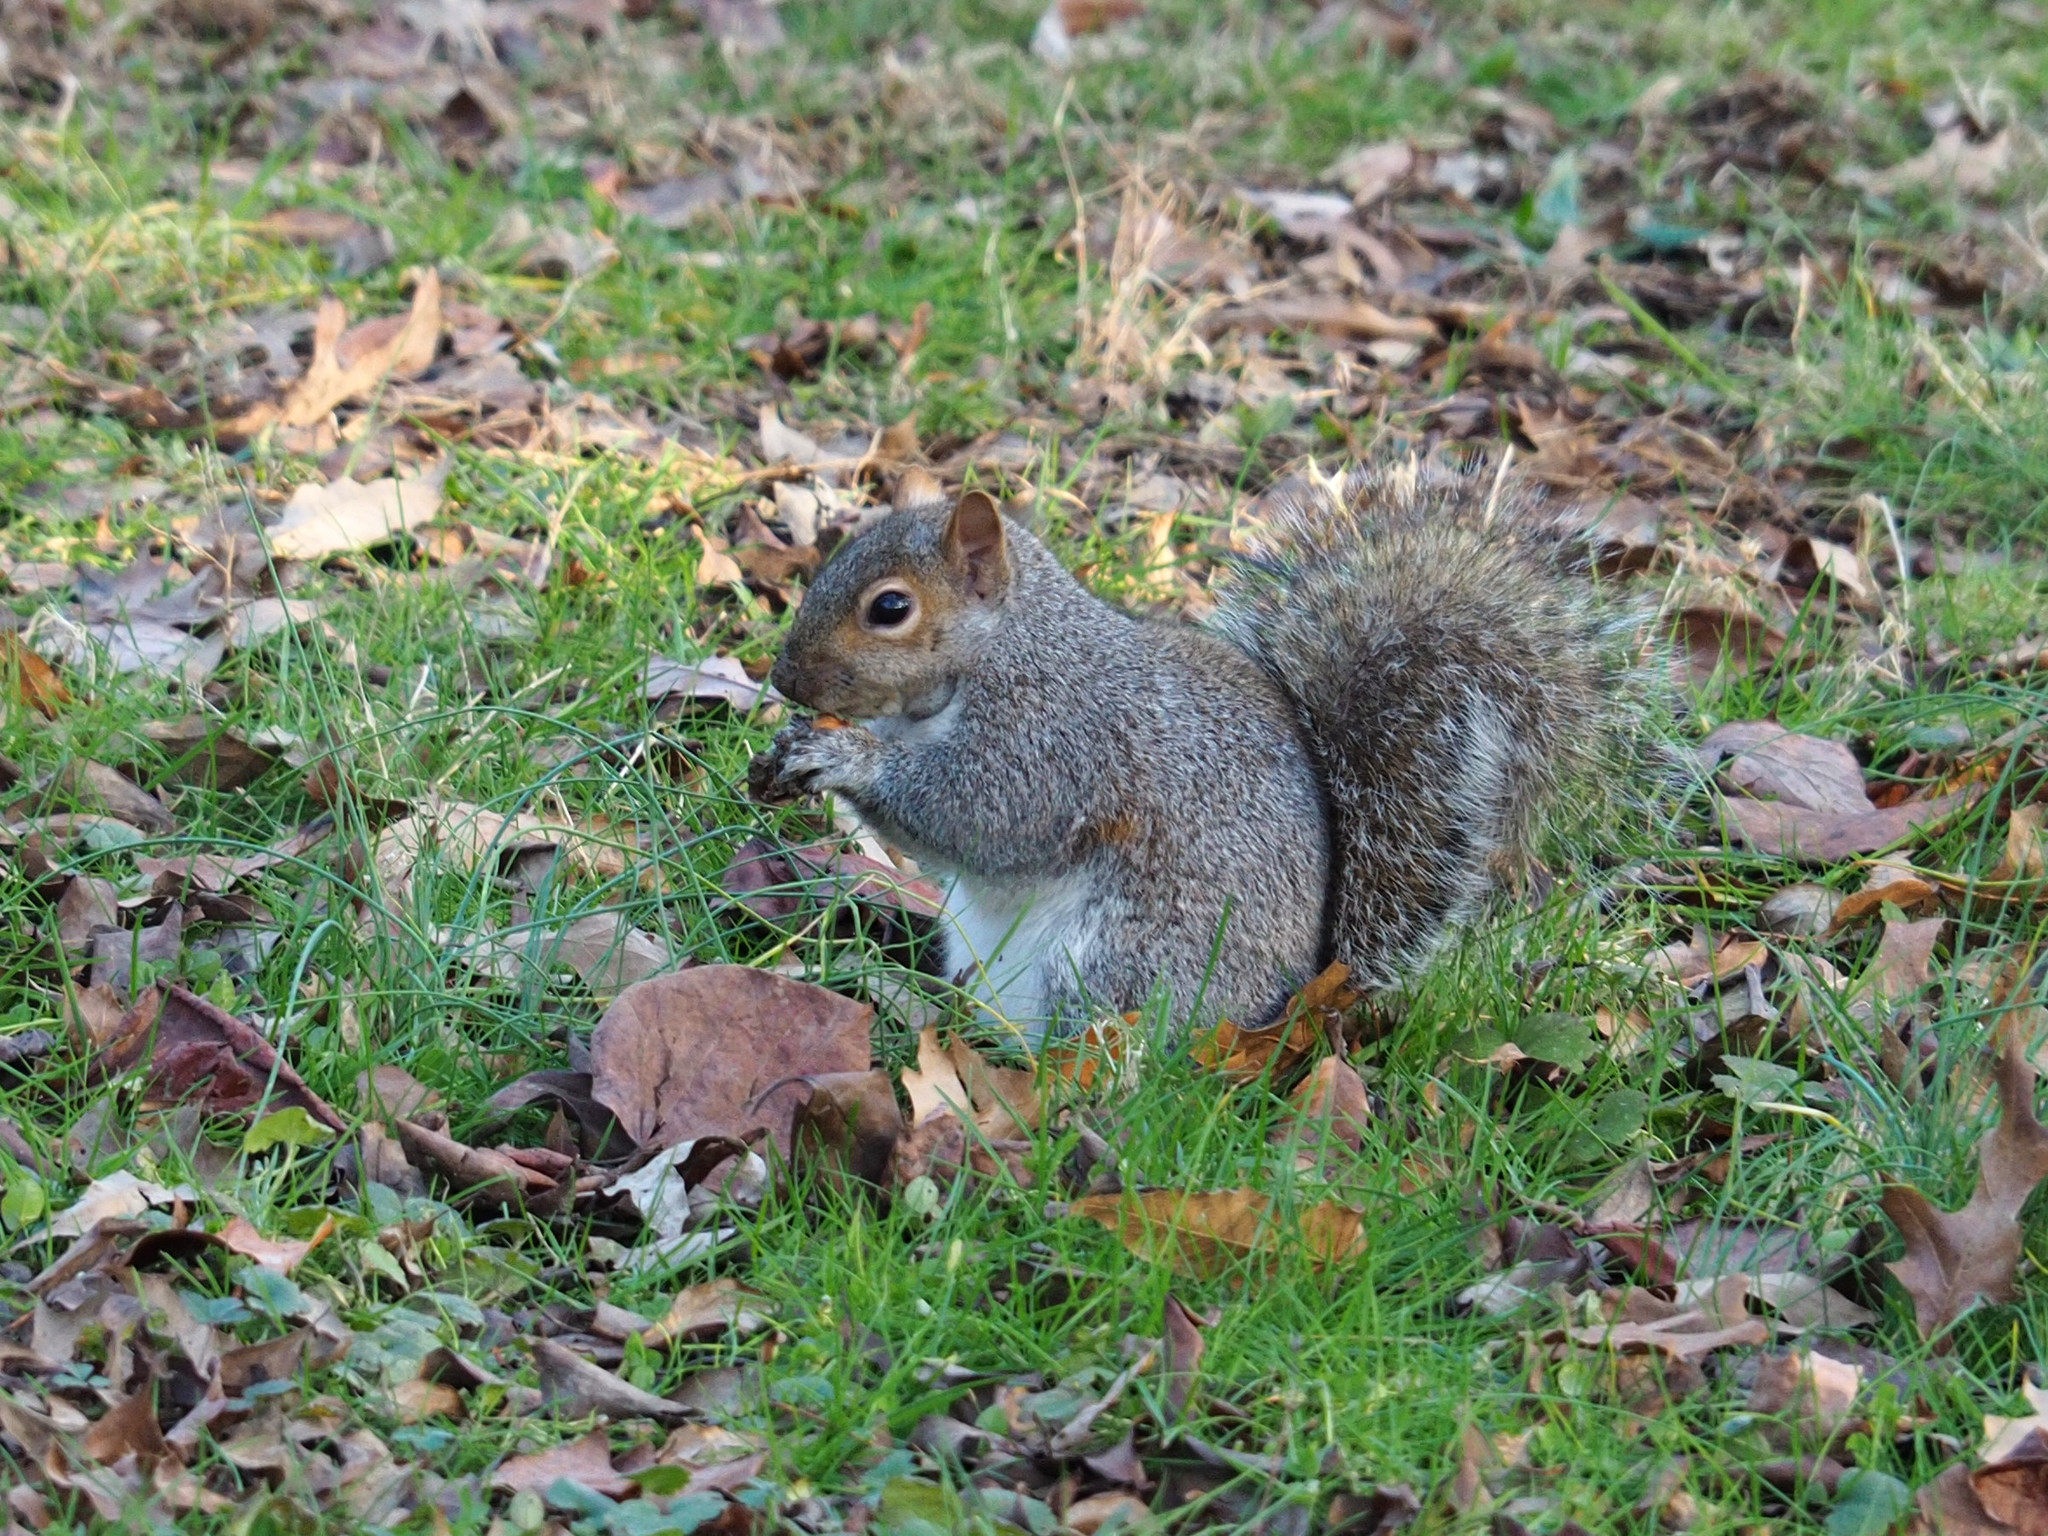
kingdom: Animalia
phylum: Chordata
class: Mammalia
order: Rodentia
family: Sciuridae
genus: Sciurus
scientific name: Sciurus carolinensis
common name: Eastern gray squirrel
